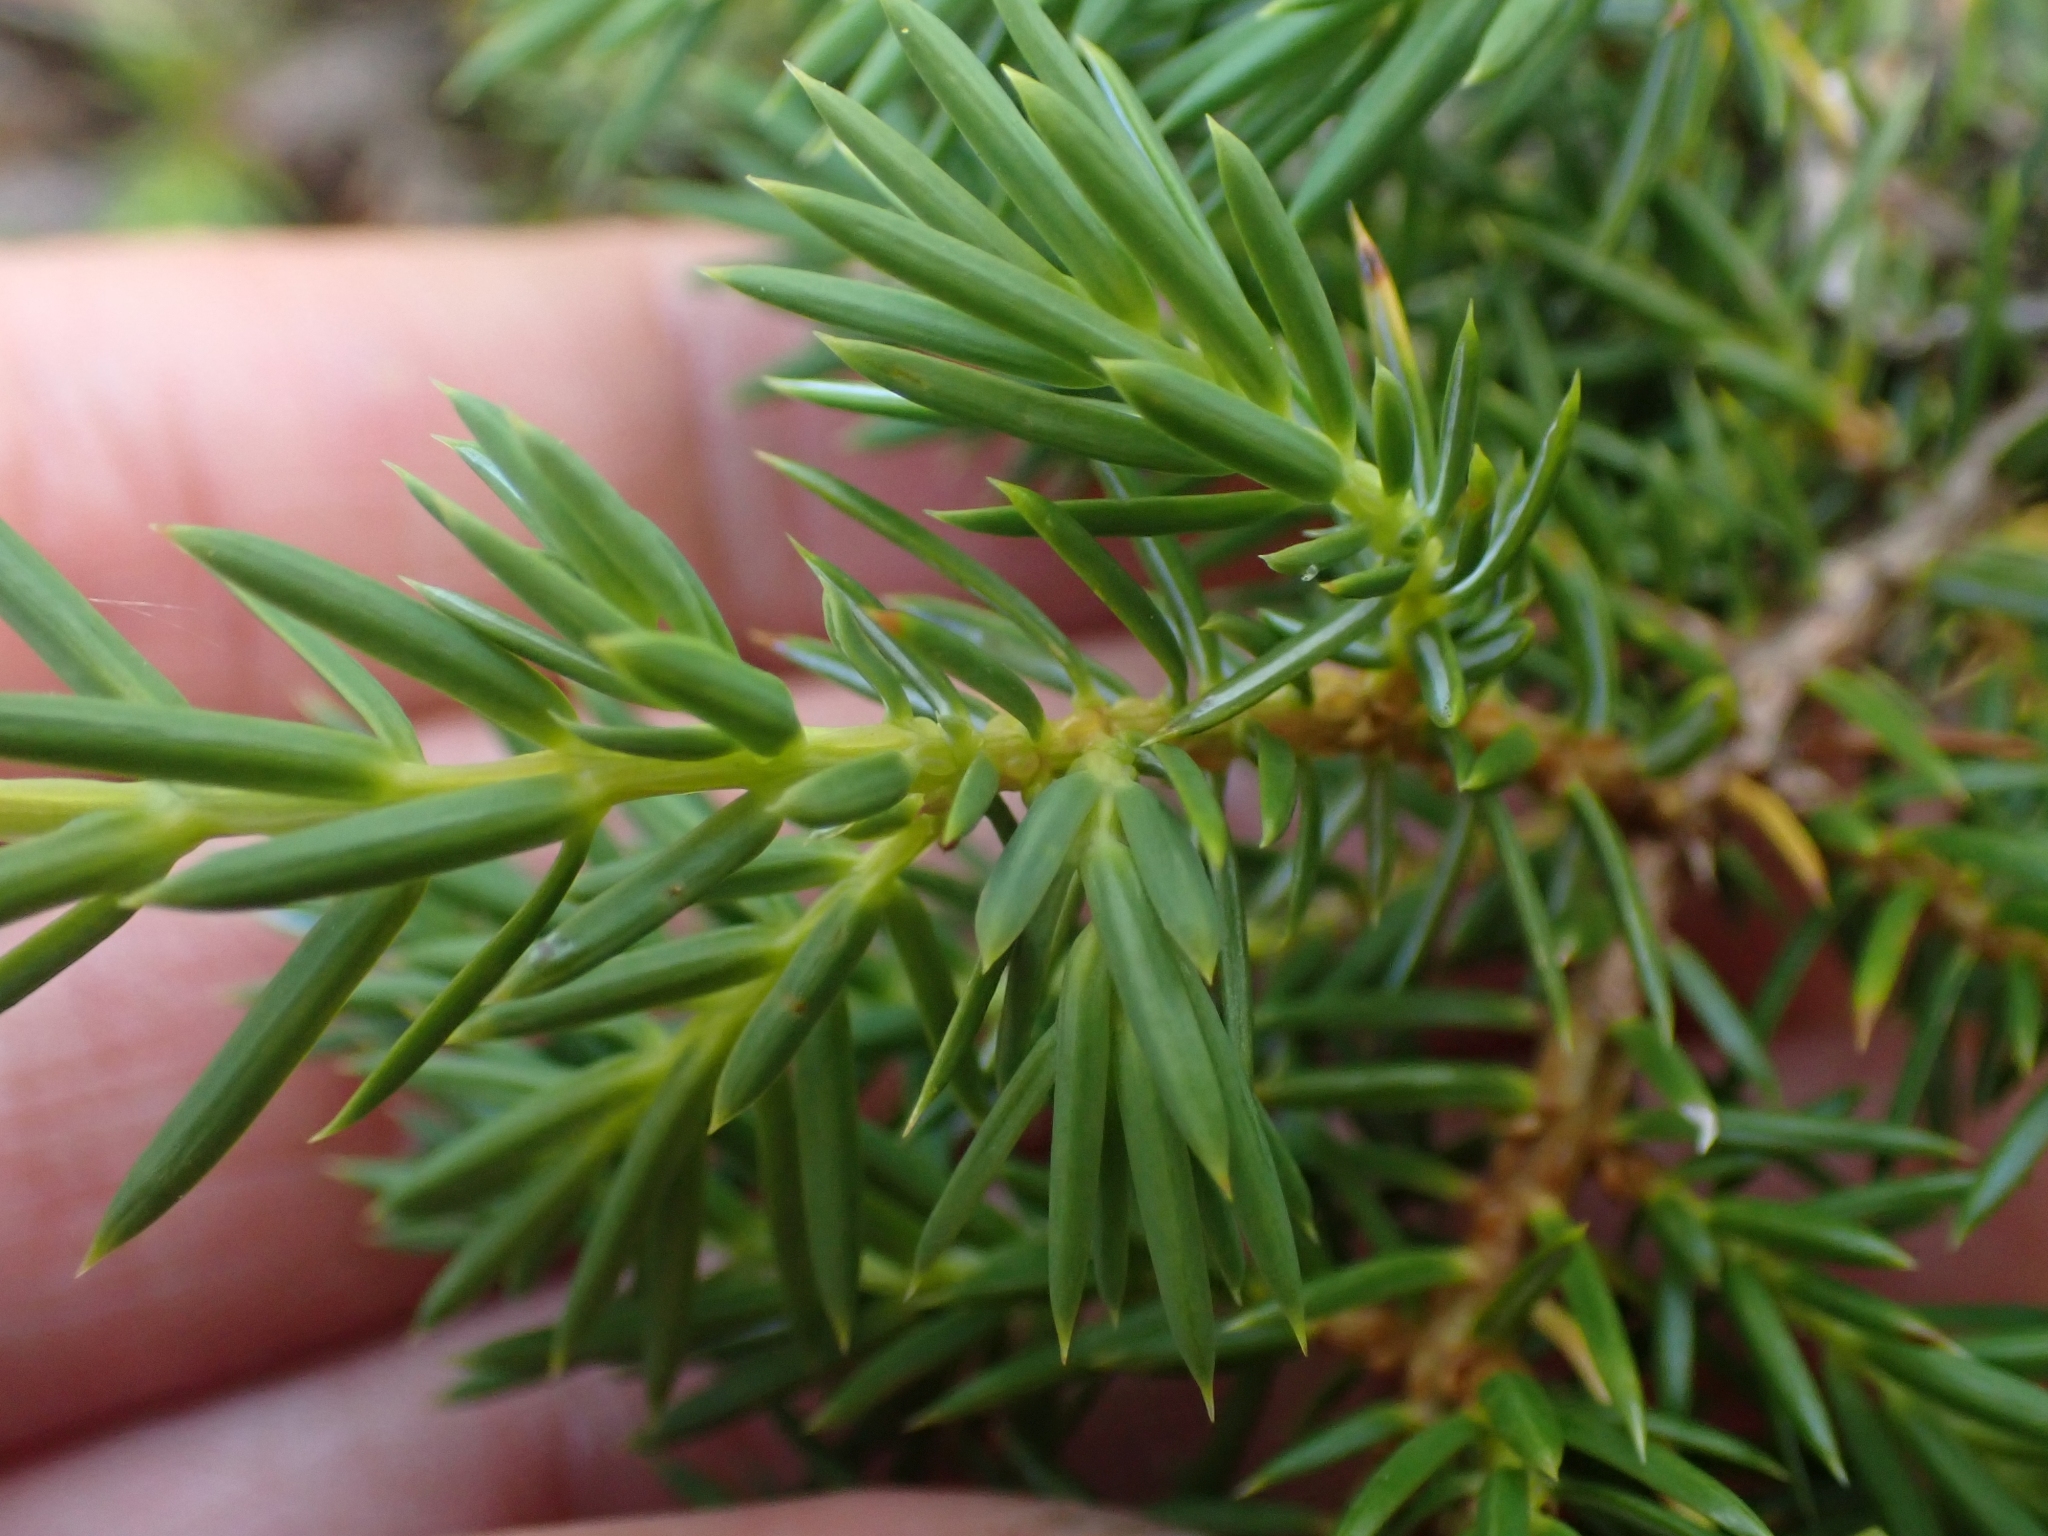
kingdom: Plantae
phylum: Tracheophyta
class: Pinopsida
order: Pinales
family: Cupressaceae
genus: Juniperus
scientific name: Juniperus communis
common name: Common juniper
